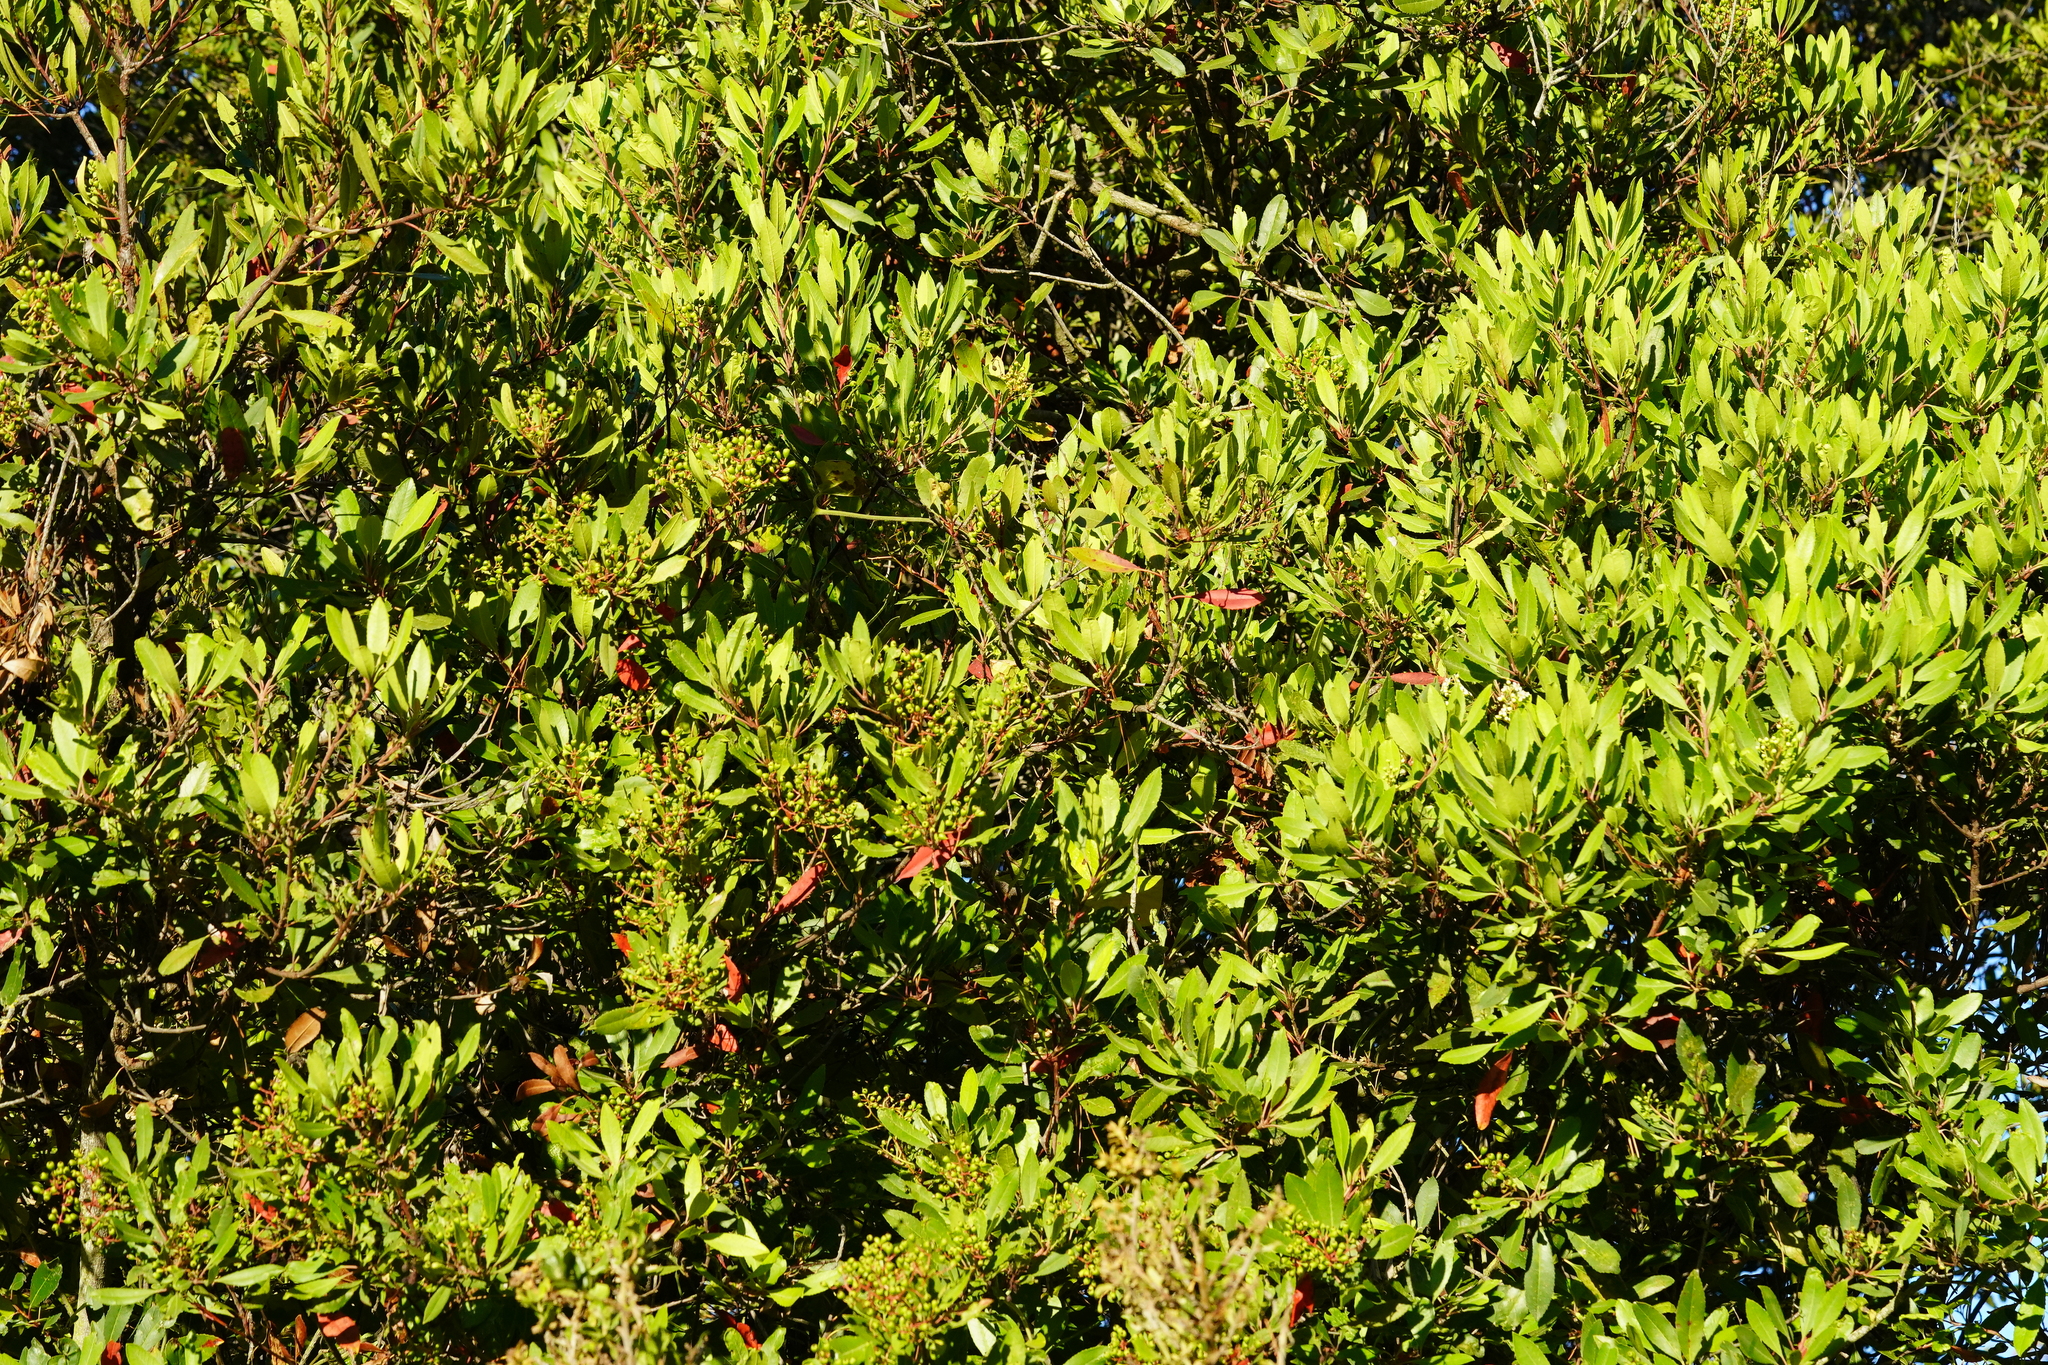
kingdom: Plantae
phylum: Tracheophyta
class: Magnoliopsida
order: Rosales
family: Rosaceae
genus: Heteromeles
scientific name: Heteromeles arbutifolia
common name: California-holly
